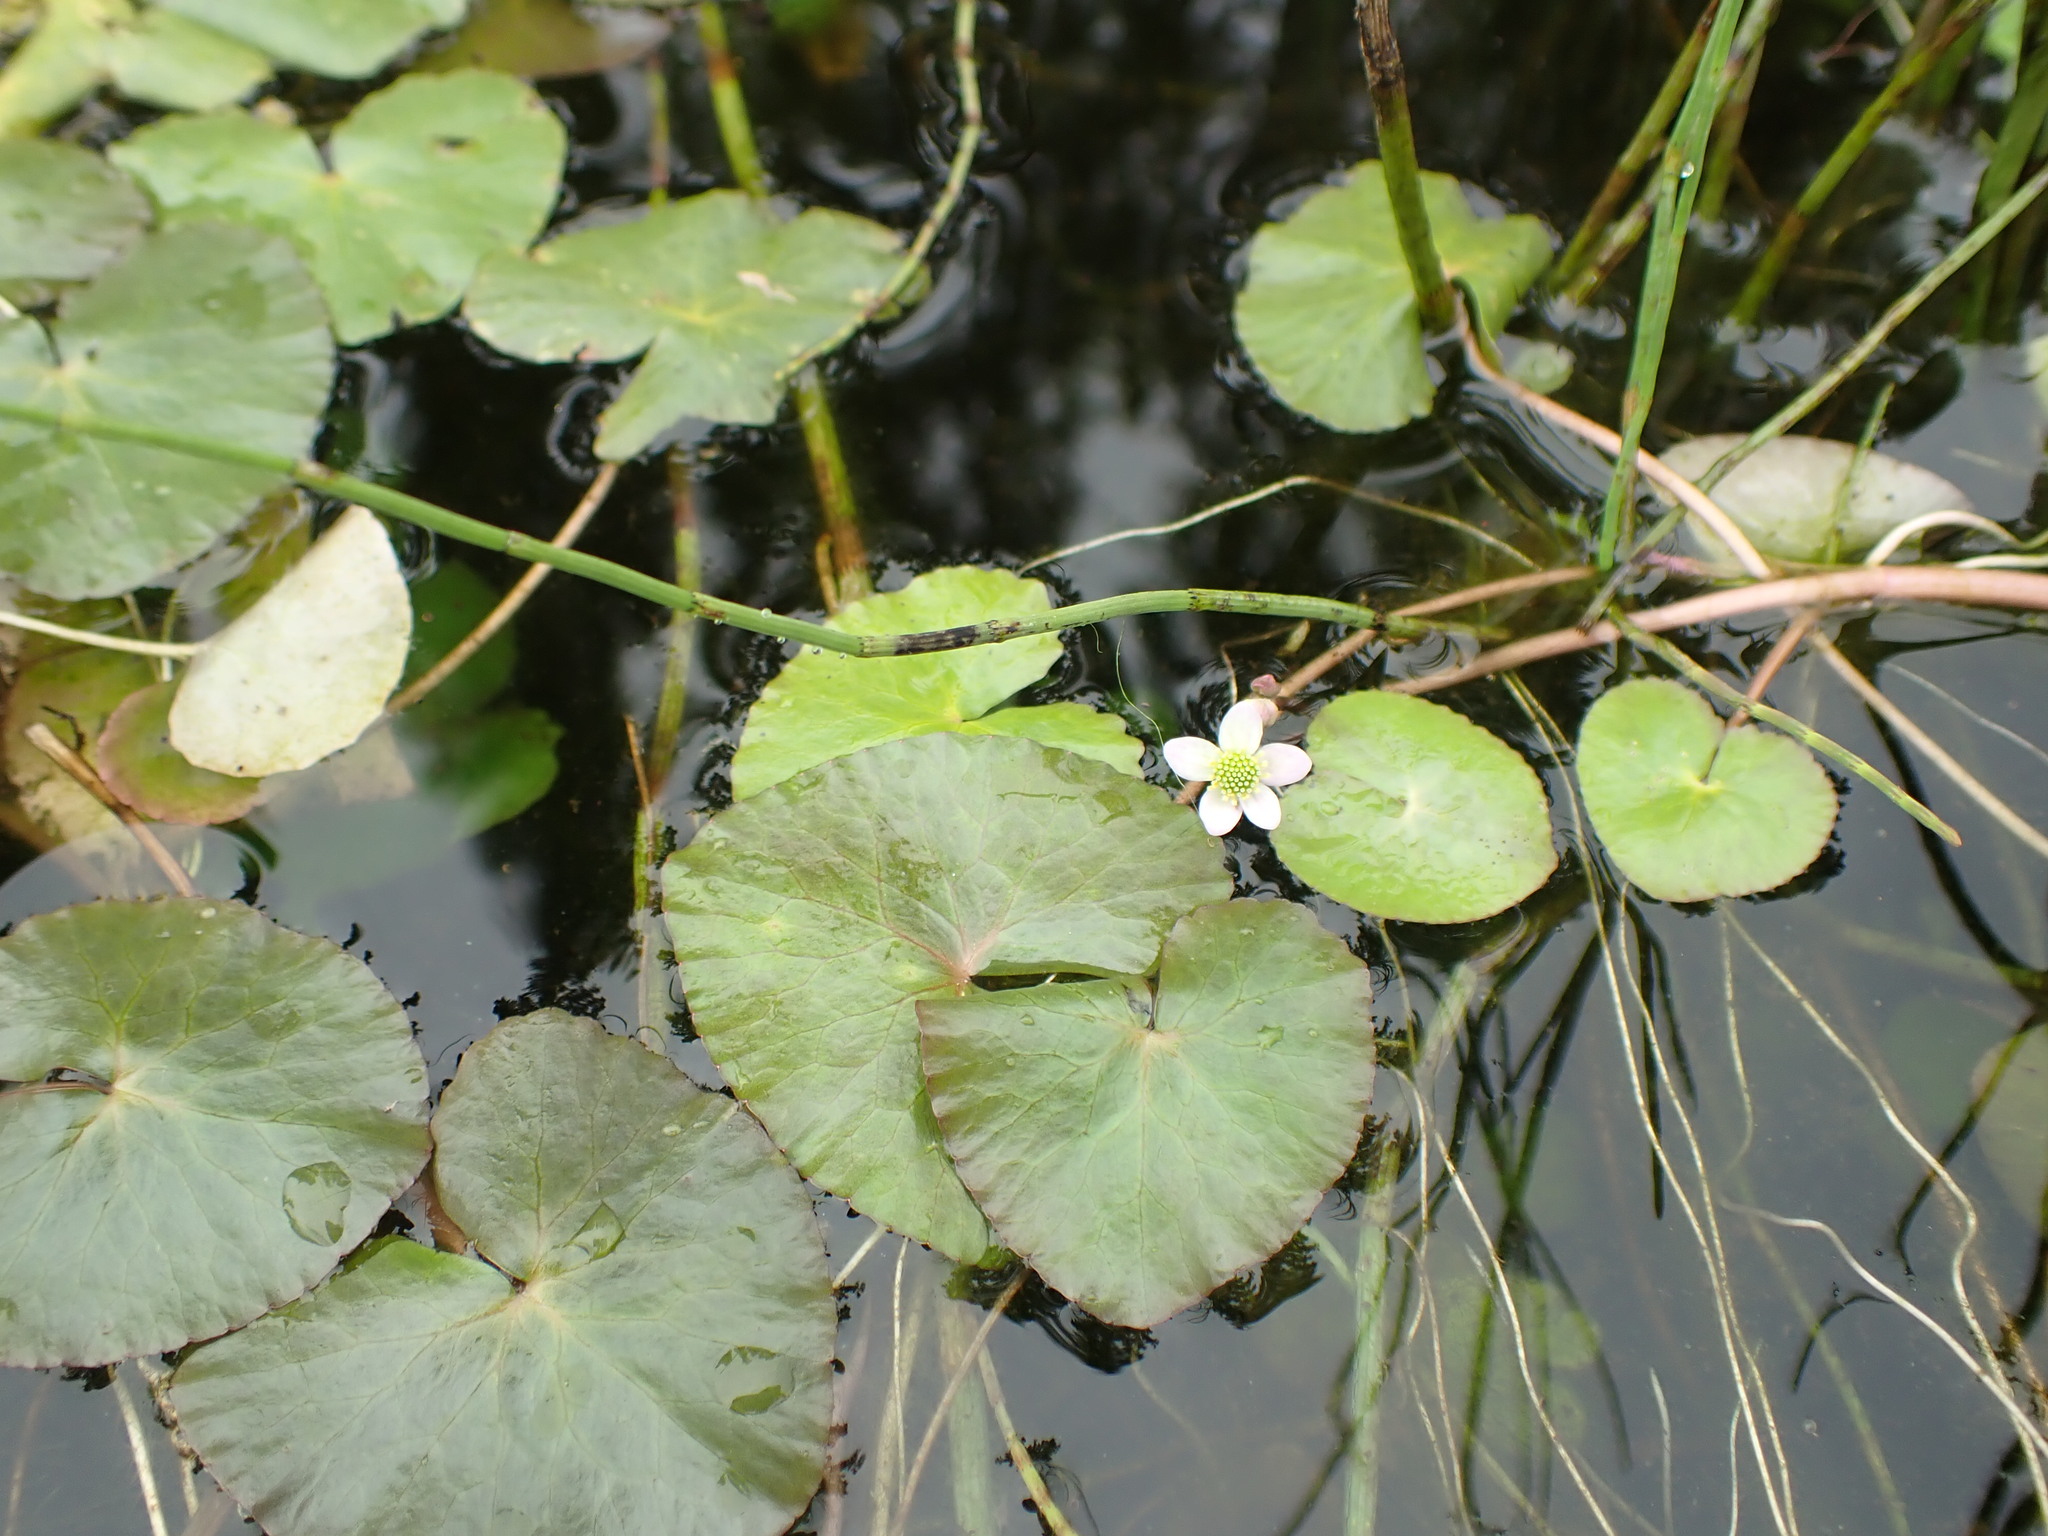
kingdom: Plantae
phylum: Tracheophyta
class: Magnoliopsida
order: Ranunculales
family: Ranunculaceae
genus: Caltha
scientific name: Caltha natans
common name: Floating marsh marigold
